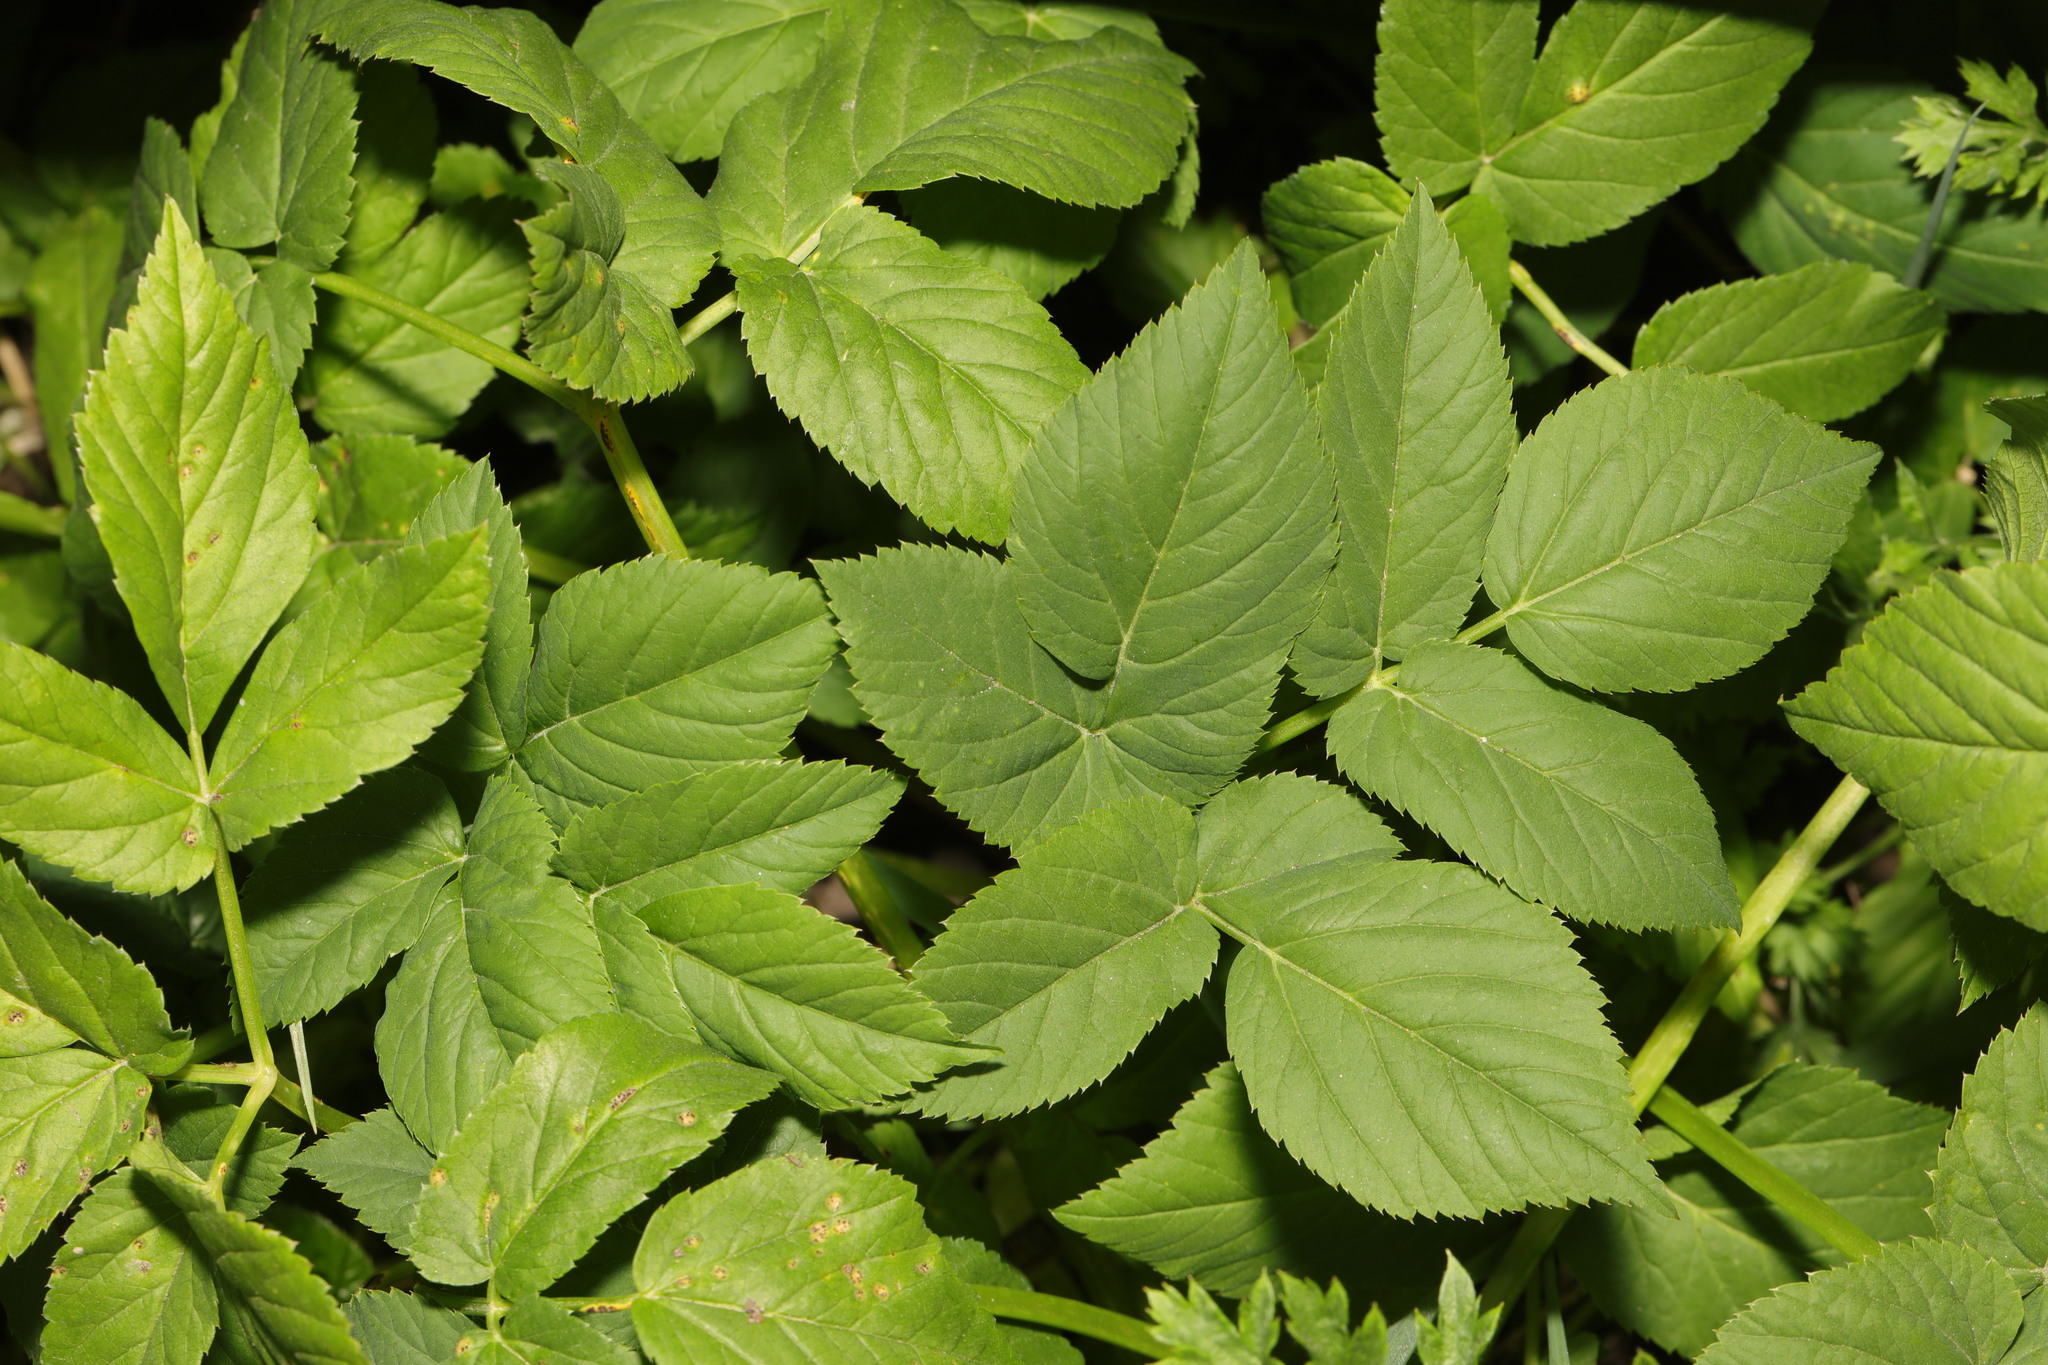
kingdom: Plantae
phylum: Tracheophyta
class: Magnoliopsida
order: Apiales
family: Apiaceae
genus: Aegopodium
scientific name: Aegopodium podagraria
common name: Ground-elder
